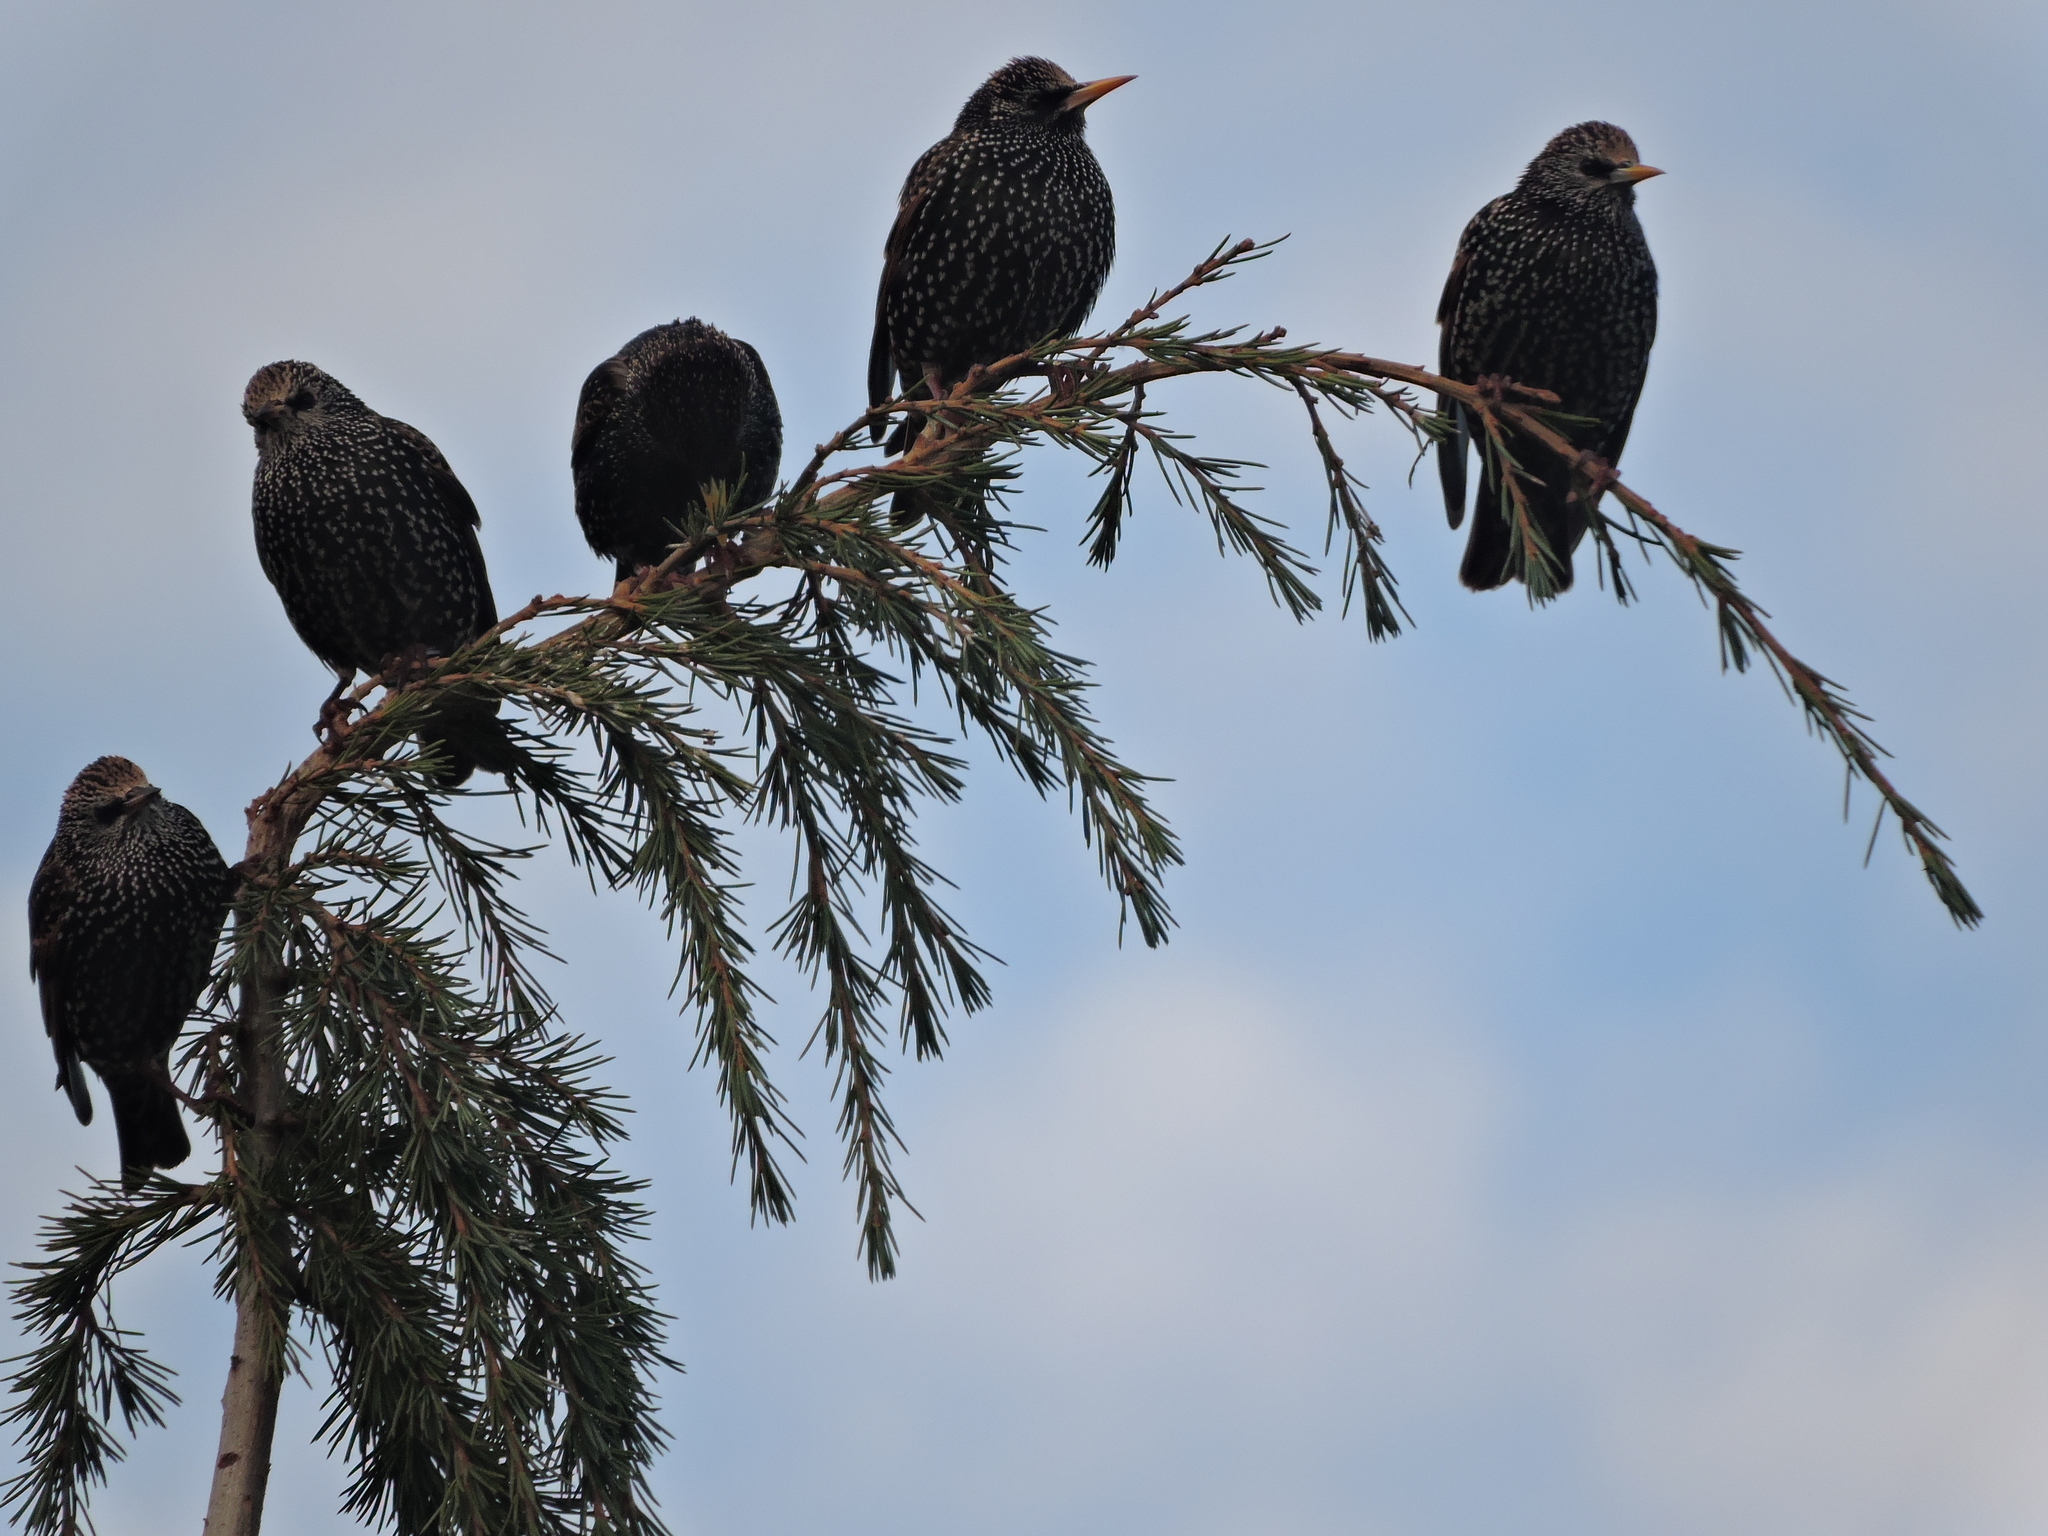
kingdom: Animalia
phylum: Chordata
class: Aves
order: Passeriformes
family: Sturnidae
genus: Sturnus
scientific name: Sturnus vulgaris
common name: Common starling
